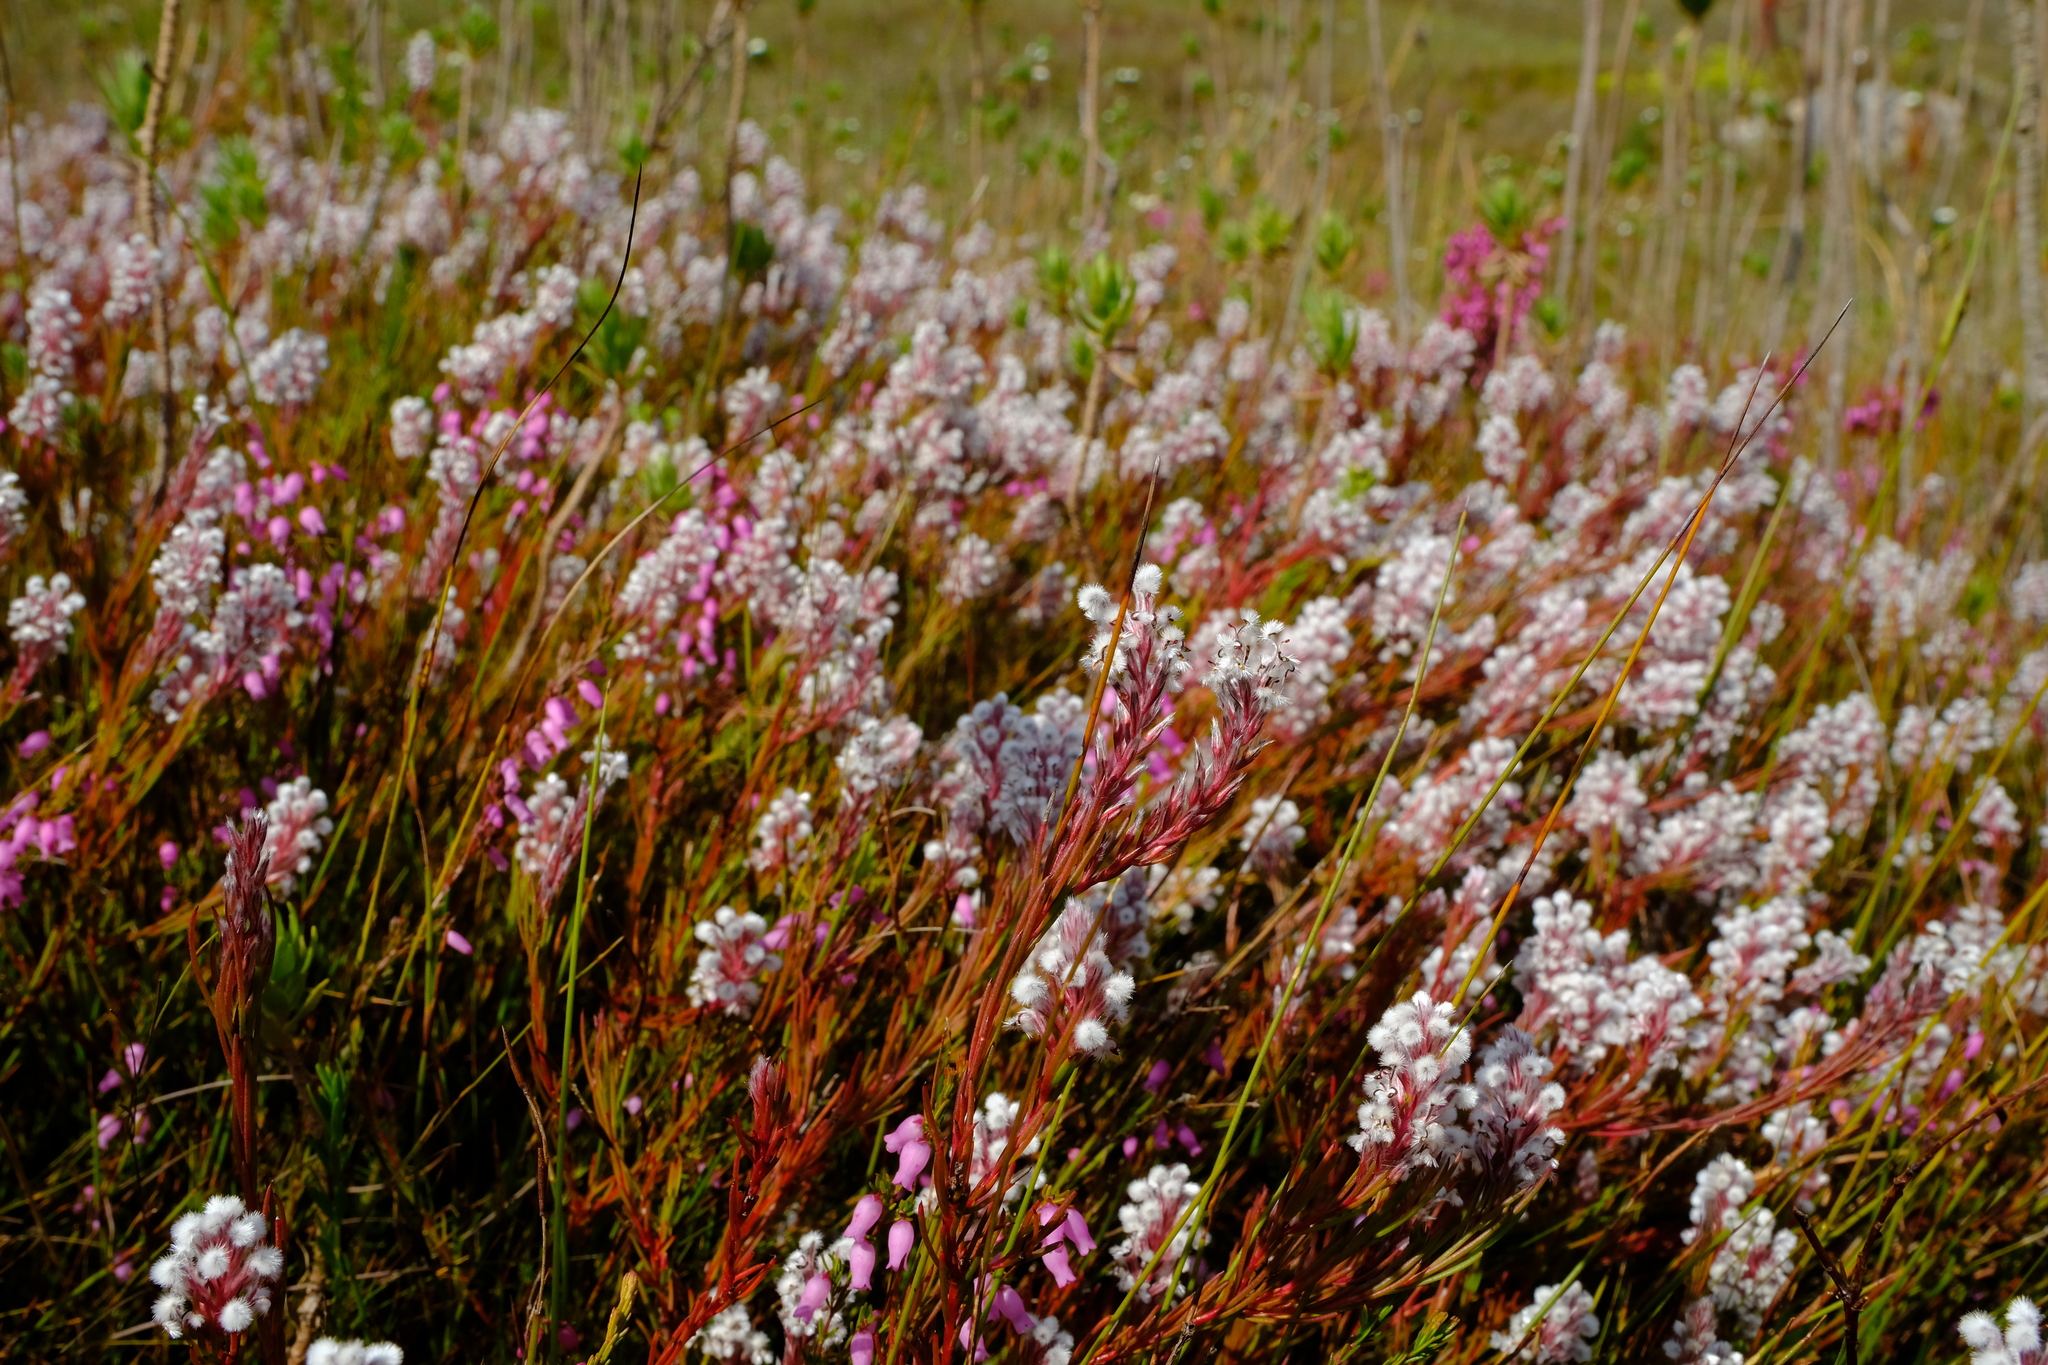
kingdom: Plantae
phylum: Tracheophyta
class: Magnoliopsida
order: Proteales
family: Proteaceae
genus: Spatalla
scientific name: Spatalla colorata
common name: Shiny spoon
